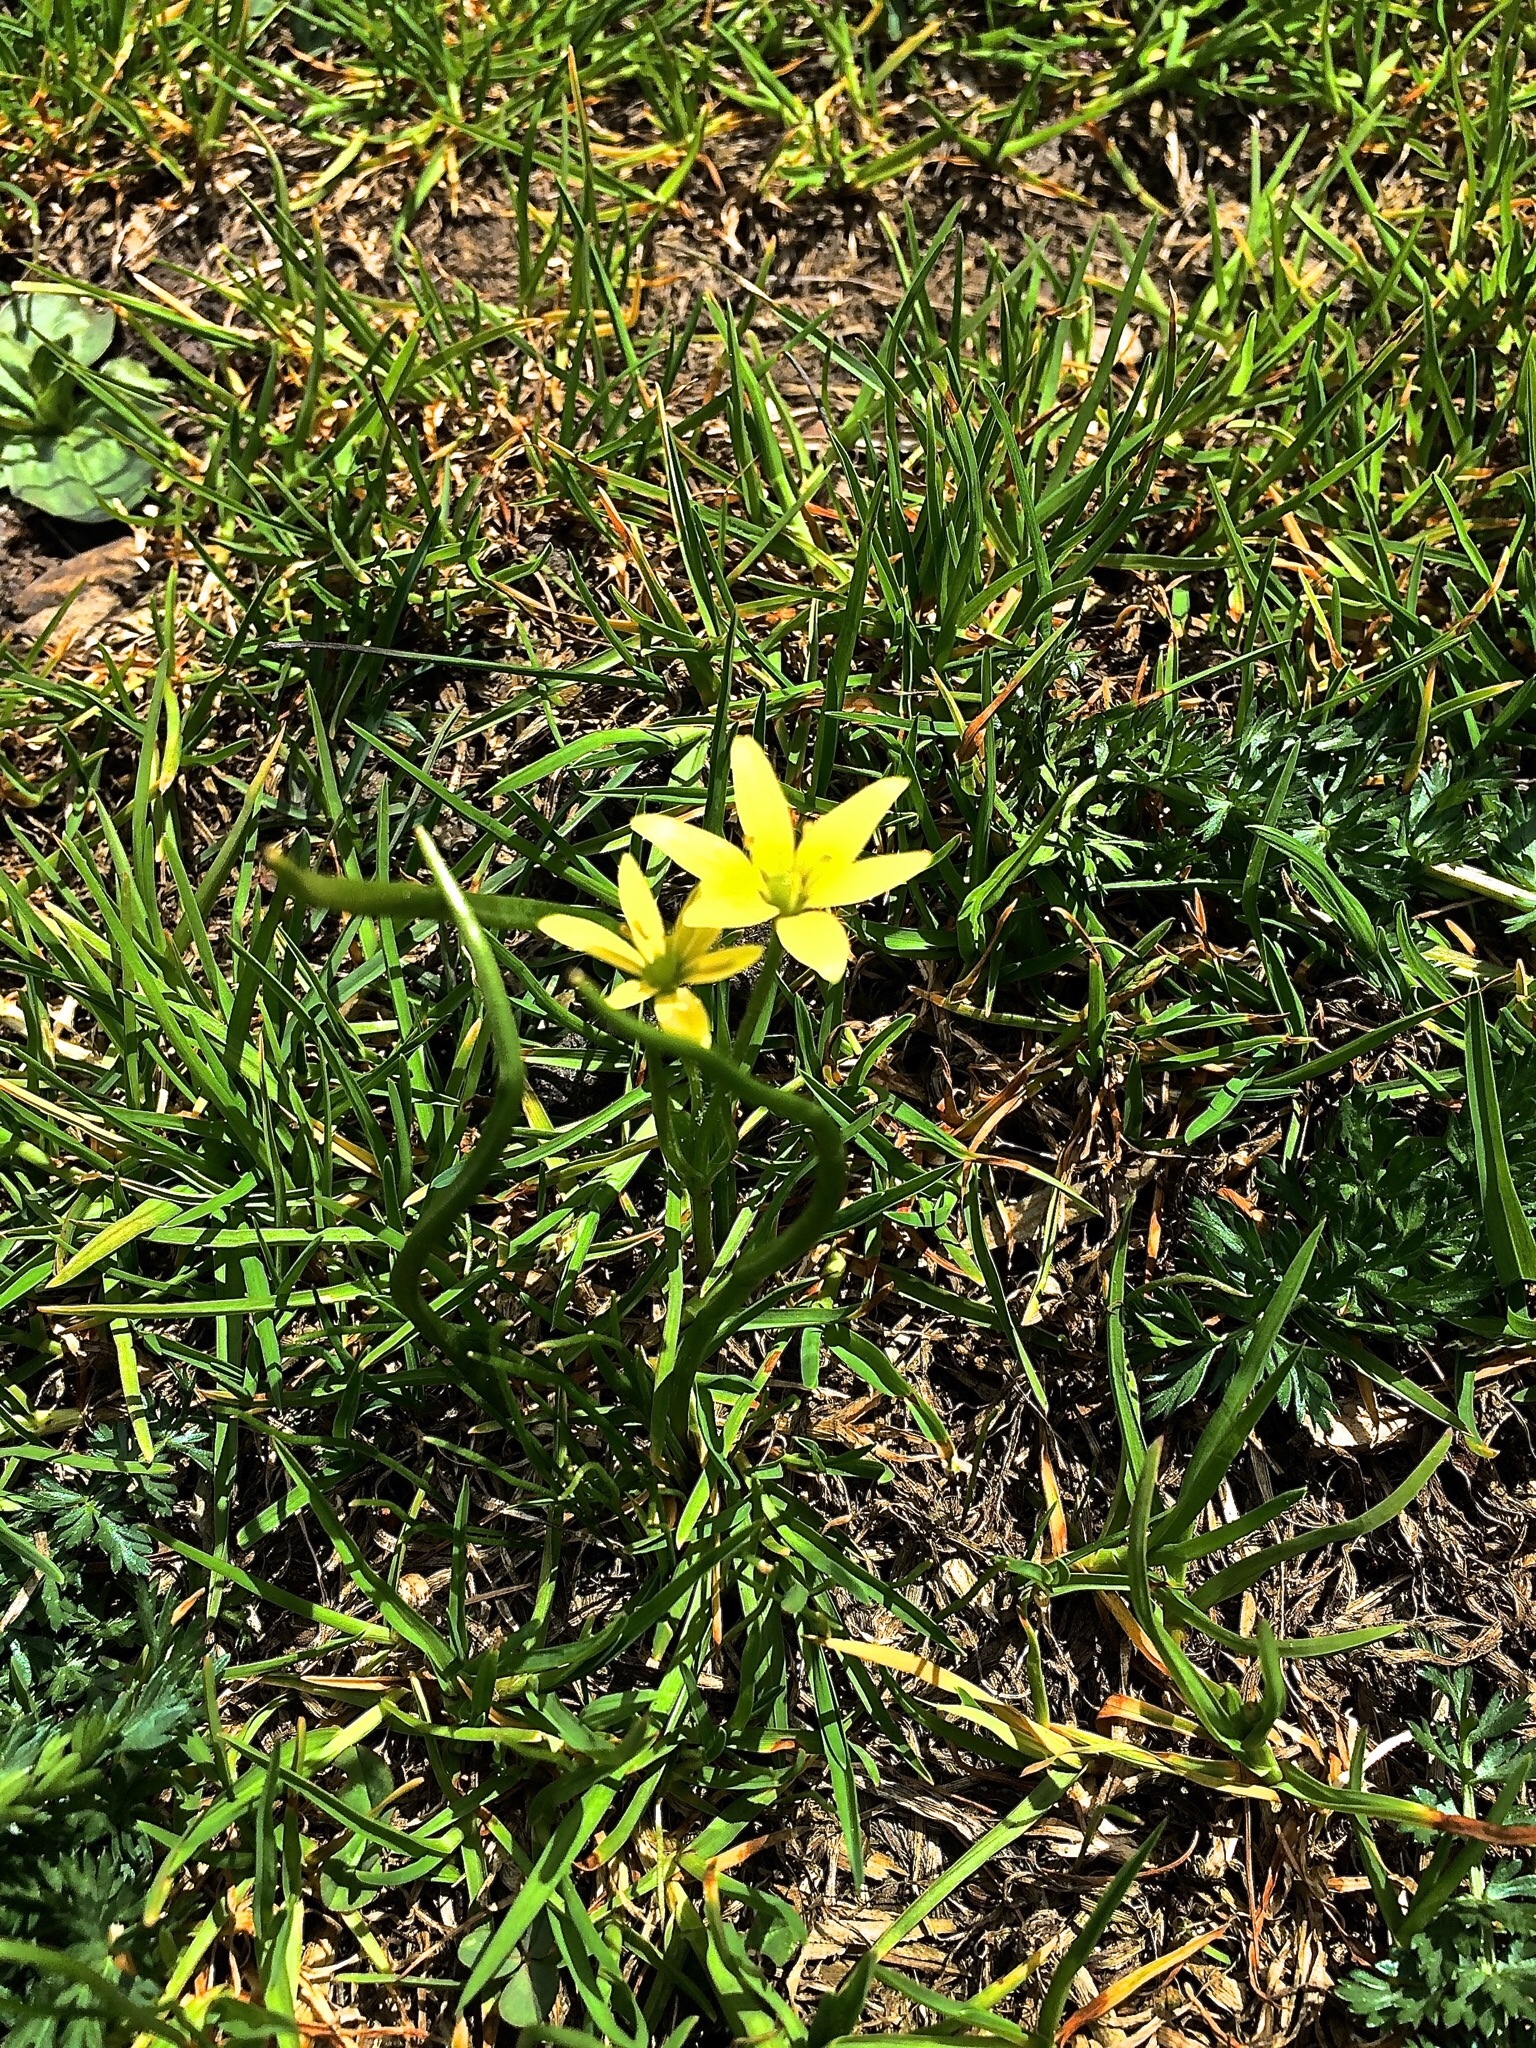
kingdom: Plantae
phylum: Tracheophyta
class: Liliopsida
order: Liliales
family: Liliaceae
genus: Gagea
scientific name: Gagea fragifera
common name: Lily
